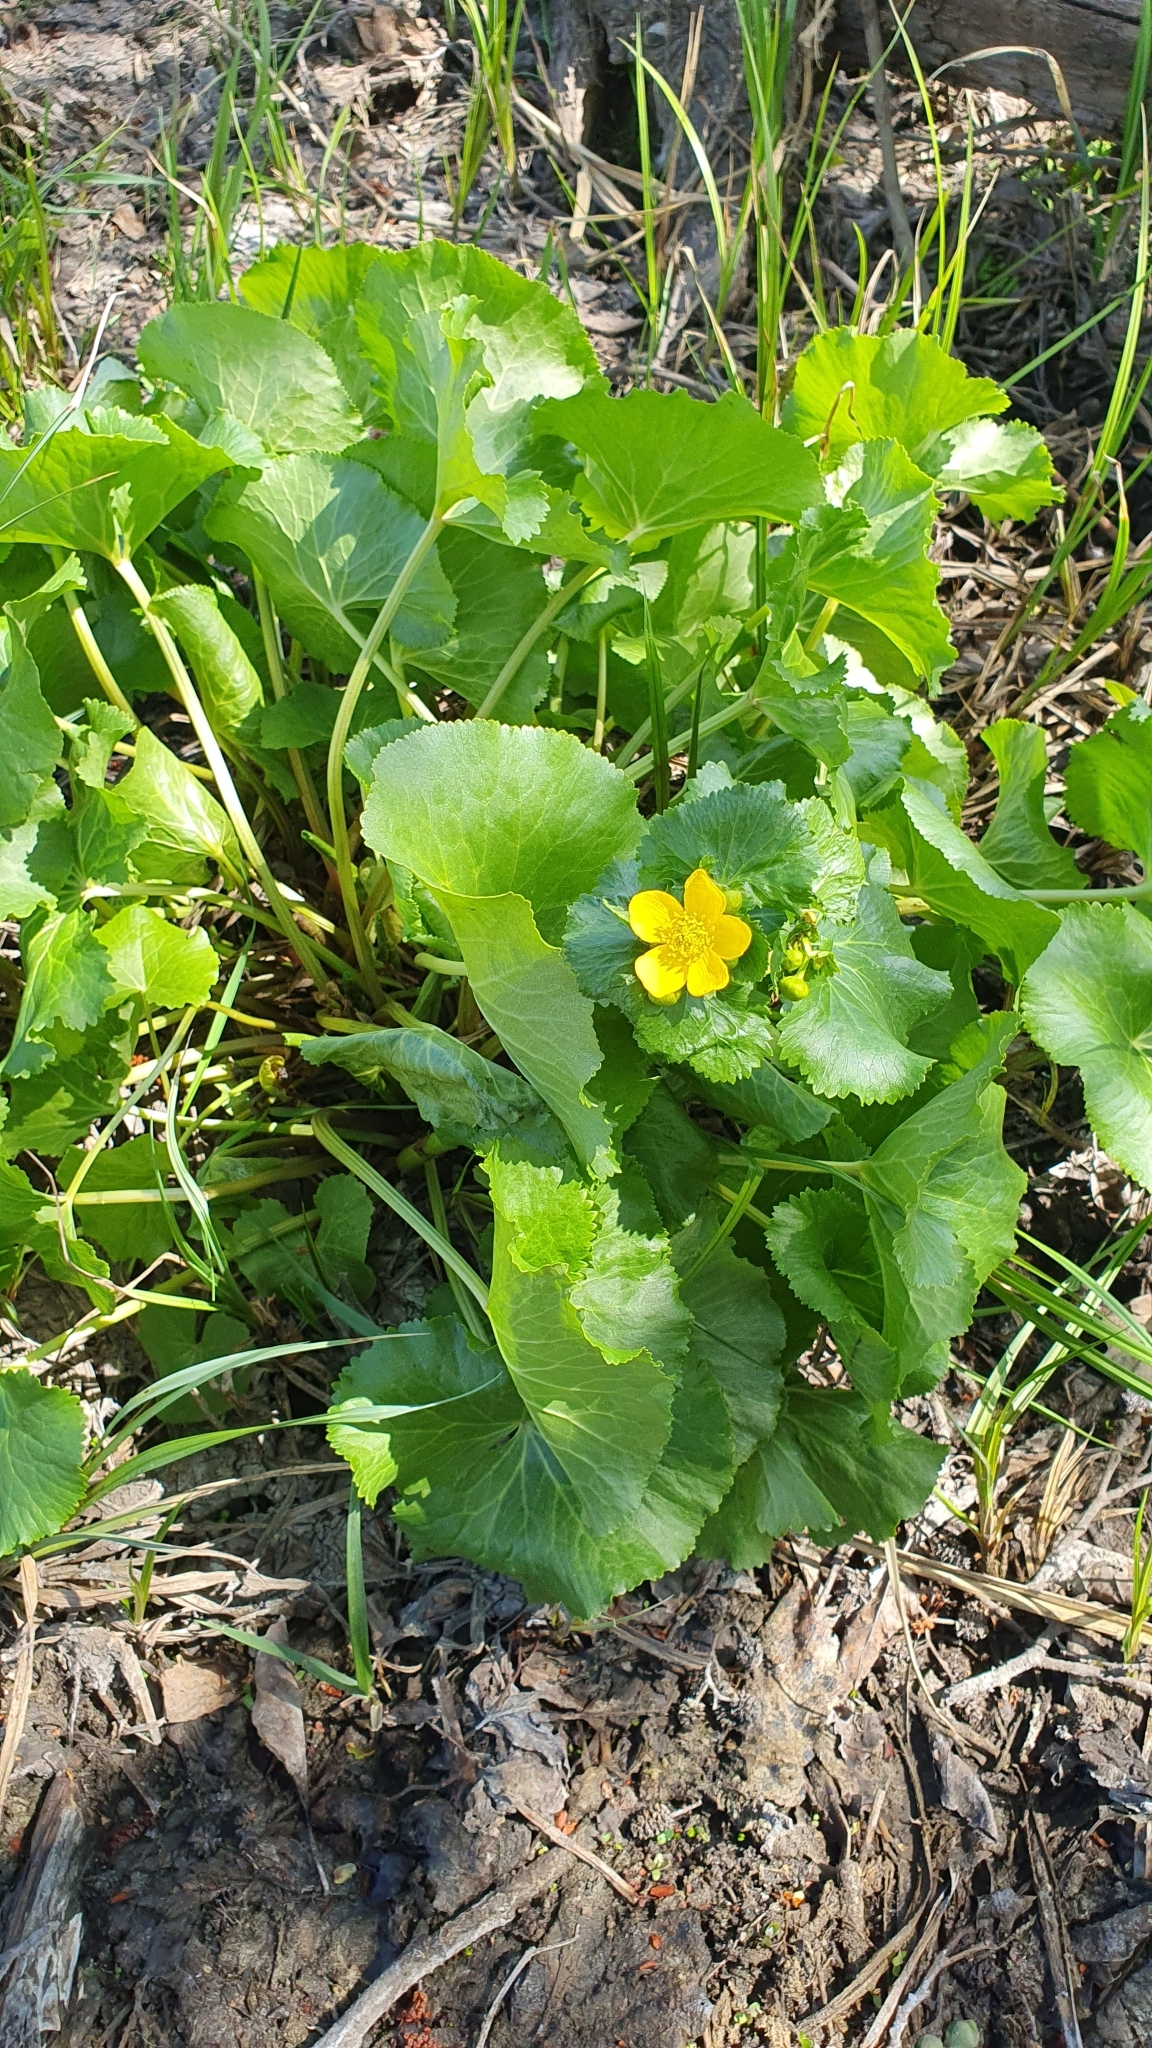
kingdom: Plantae
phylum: Tracheophyta
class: Magnoliopsida
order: Ranunculales
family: Ranunculaceae
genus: Caltha
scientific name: Caltha palustris
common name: Marsh marigold
